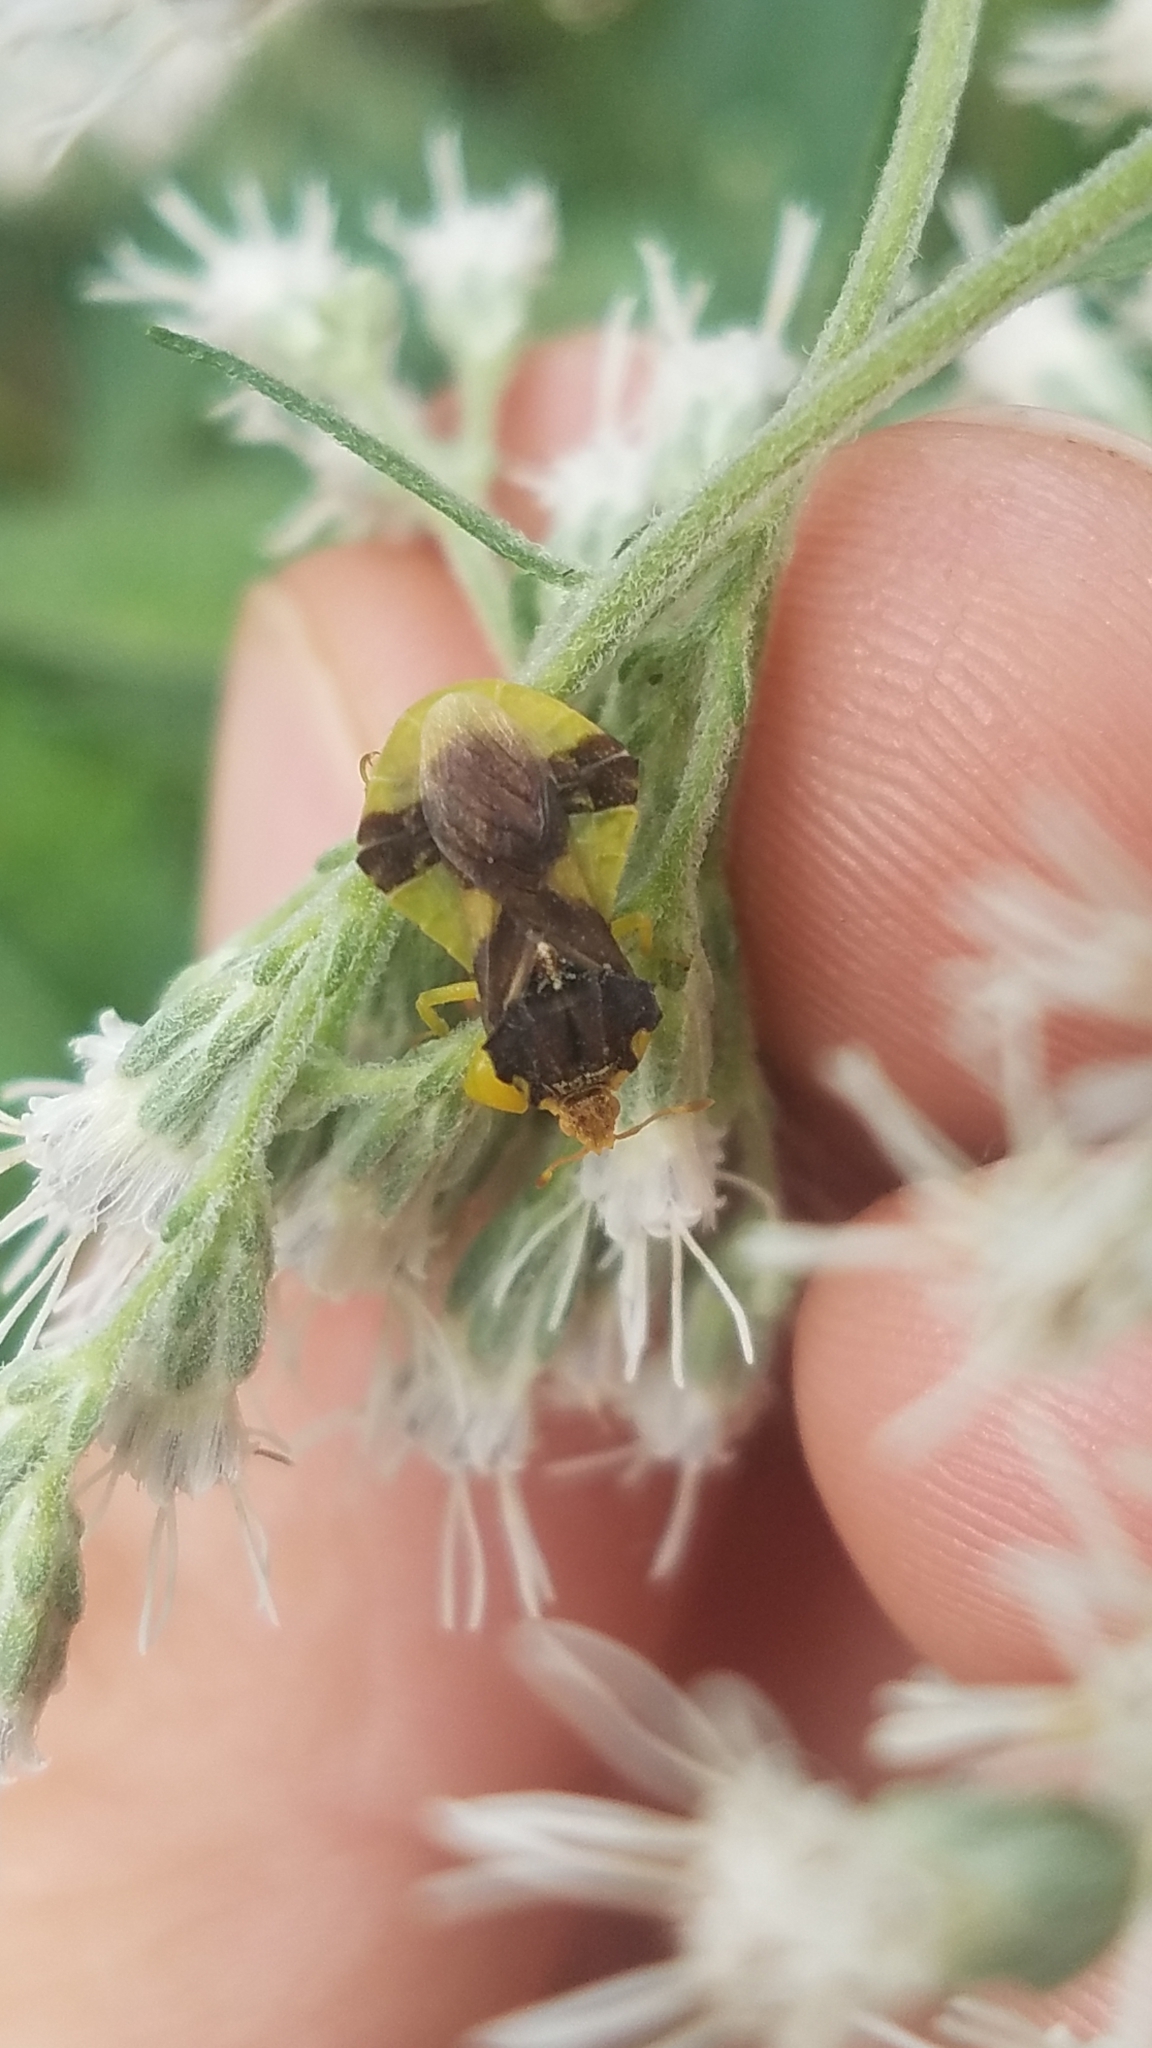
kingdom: Animalia
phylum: Arthropoda
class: Insecta
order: Hemiptera
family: Reduviidae
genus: Phymata
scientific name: Phymata pennsylvanica
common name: Pennsylvania ambush bug
